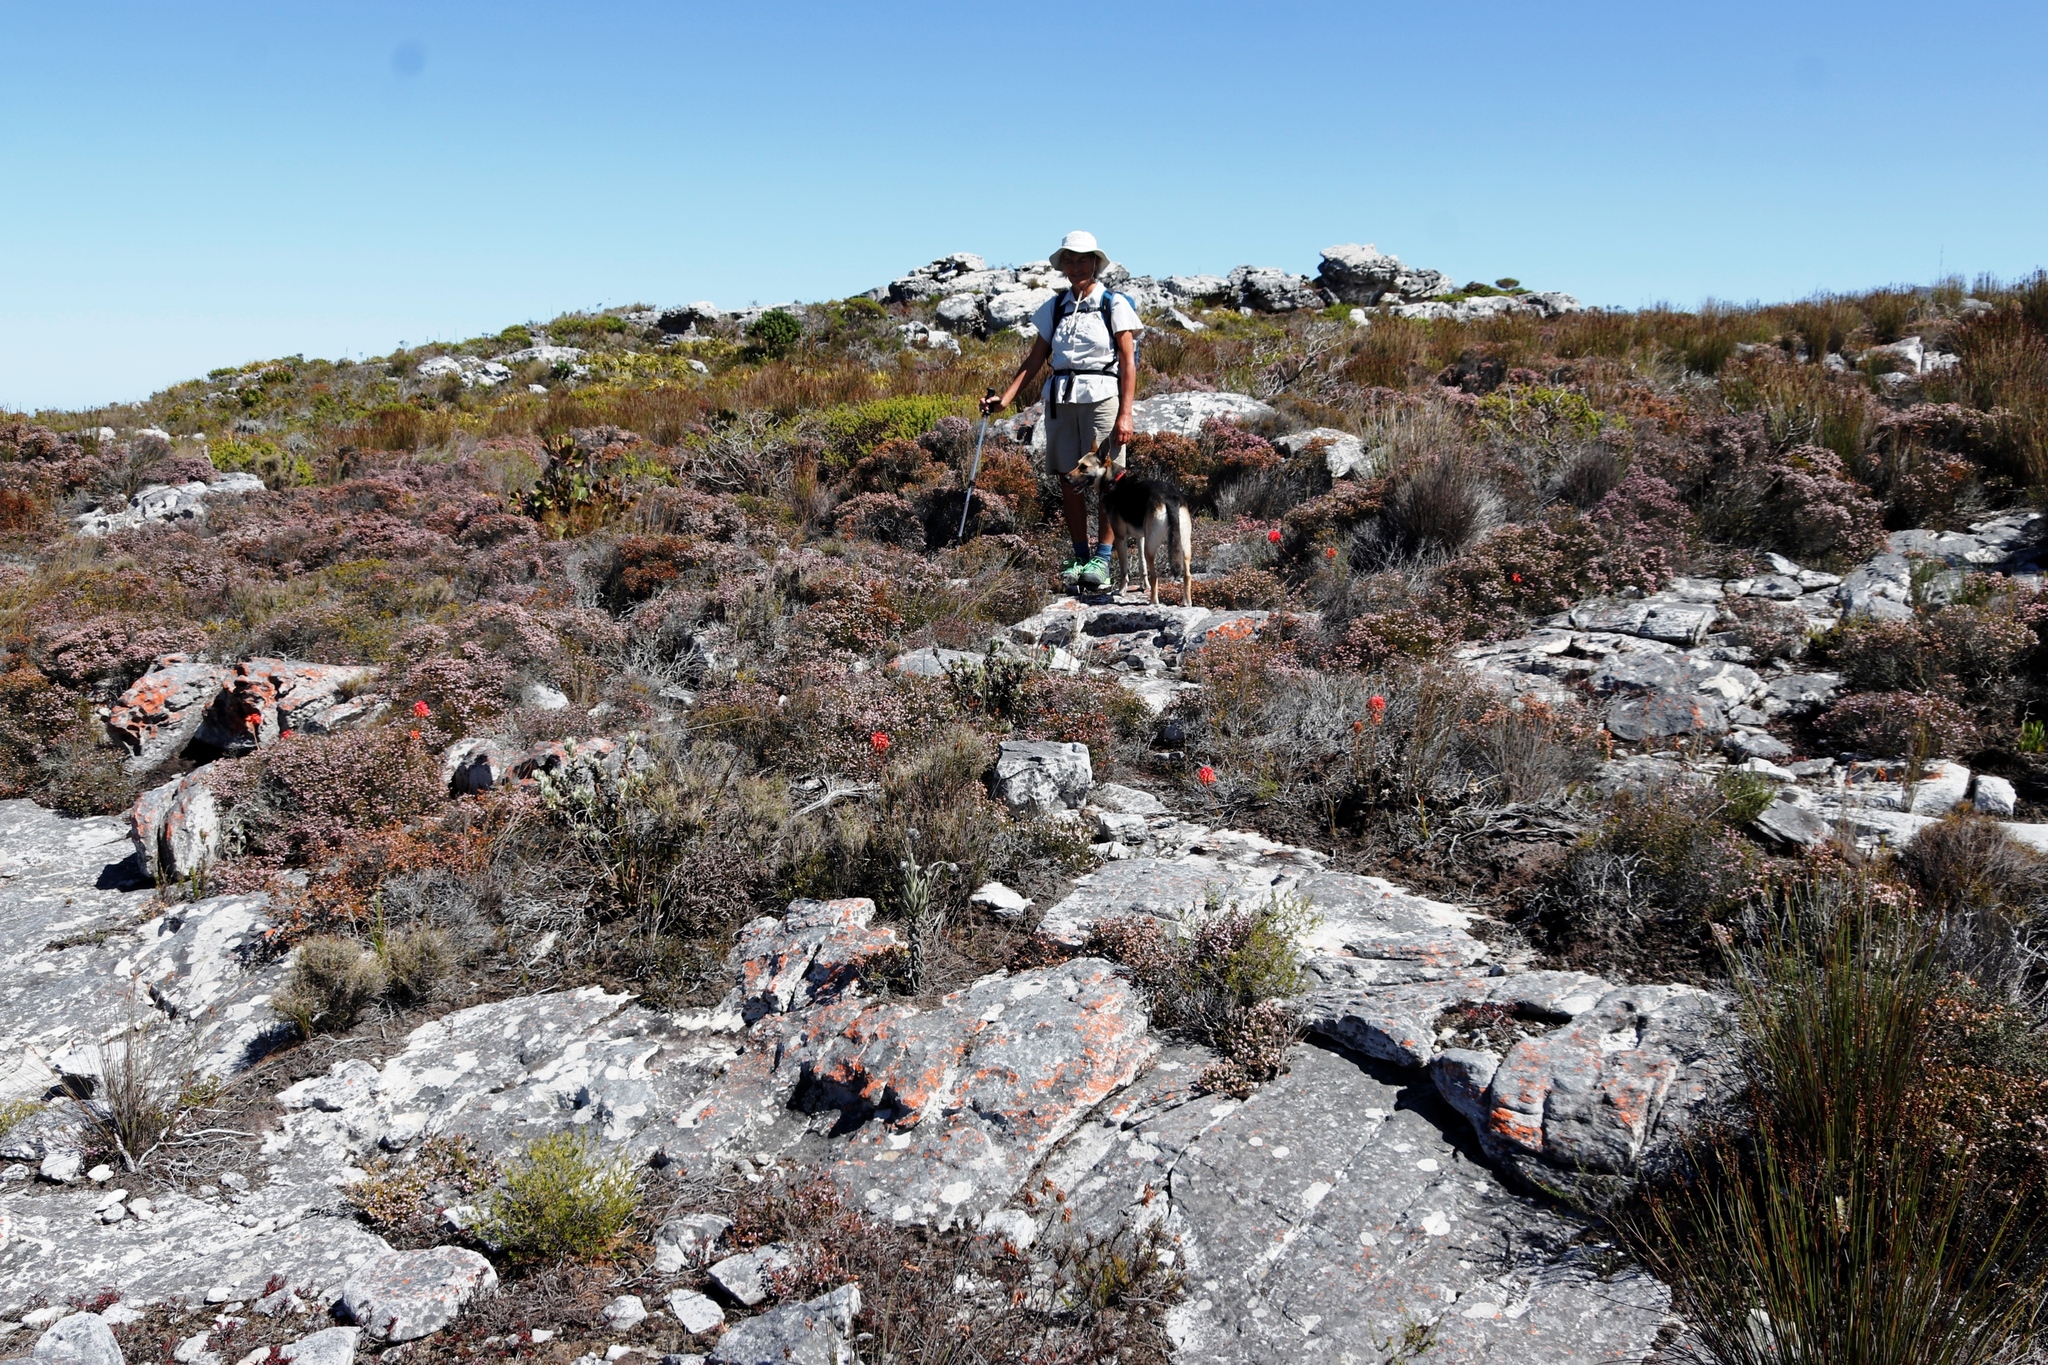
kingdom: Plantae
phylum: Tracheophyta
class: Magnoliopsida
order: Ericales
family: Ericaceae
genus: Erica
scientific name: Erica ericoides
